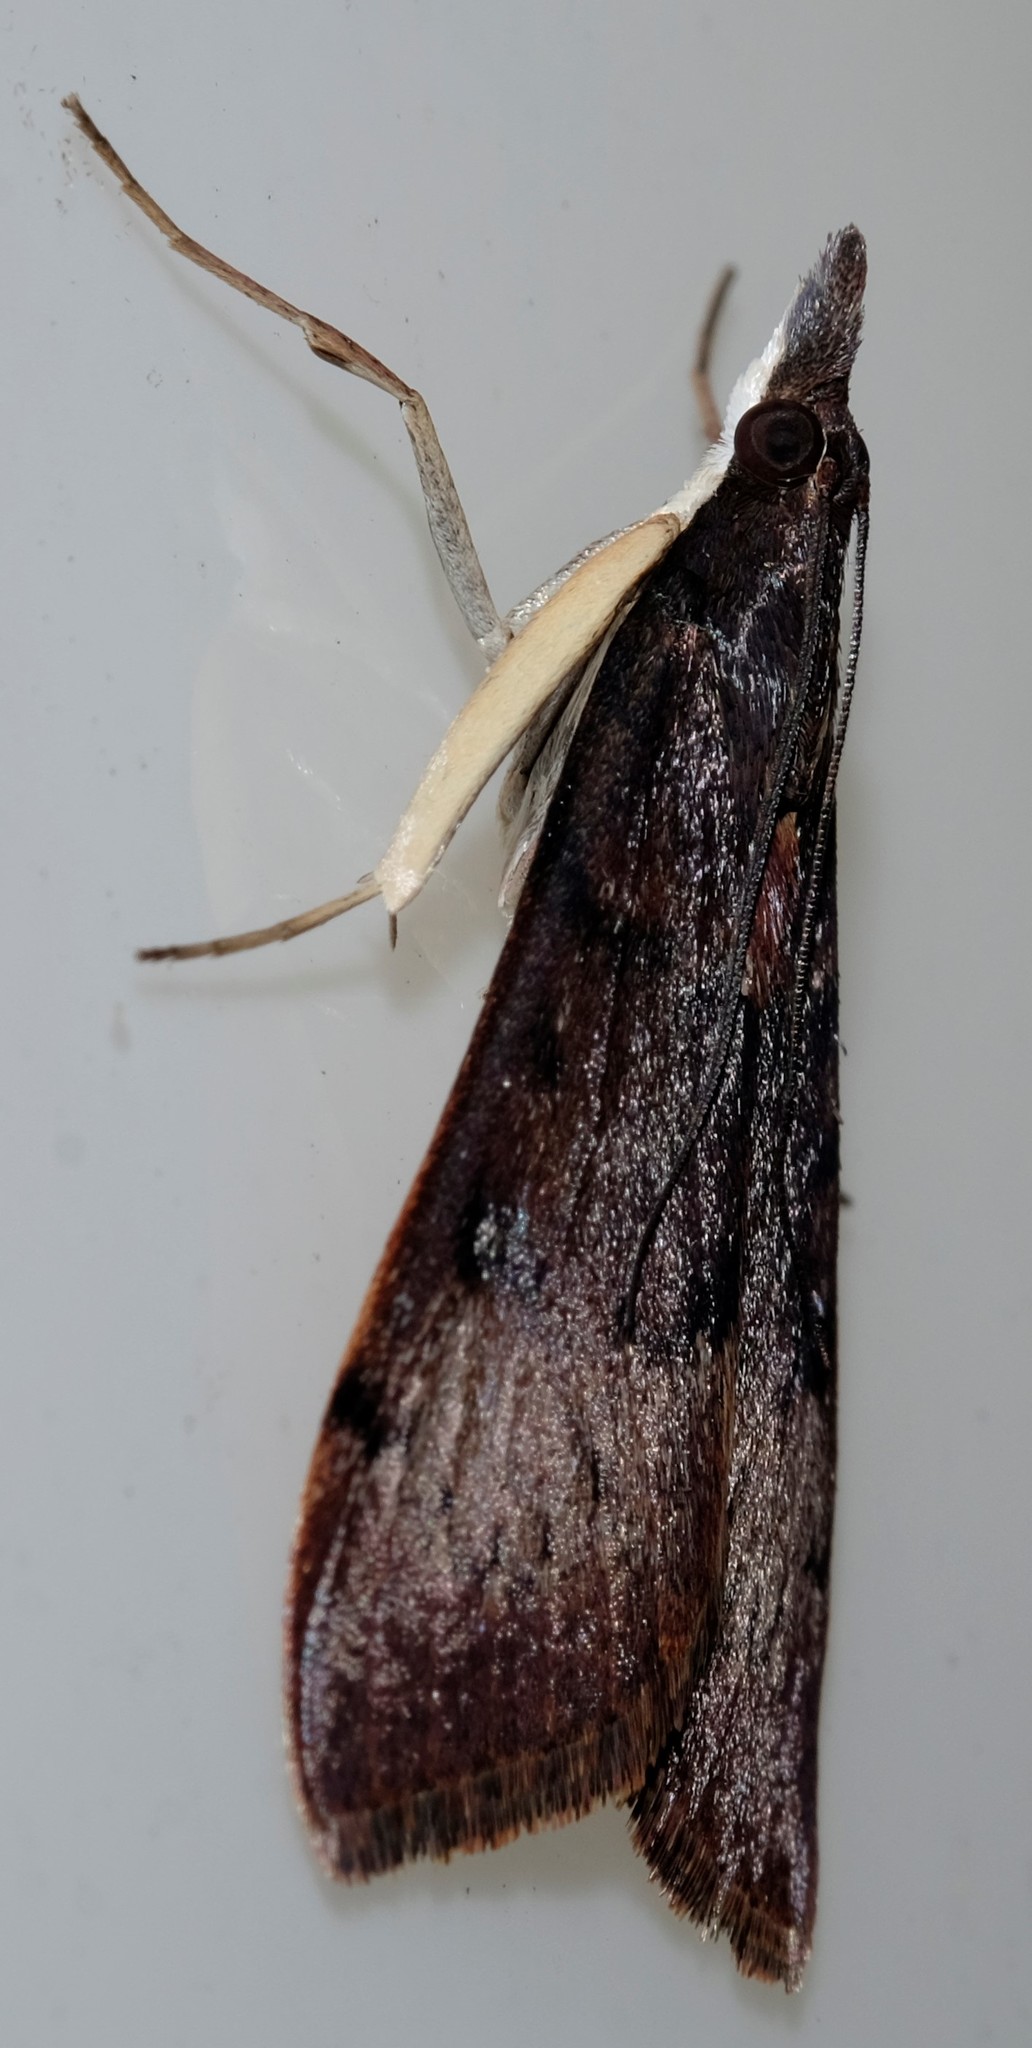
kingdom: Animalia
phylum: Arthropoda
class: Insecta
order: Lepidoptera
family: Crambidae
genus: Uresiphita
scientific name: Uresiphita ornithopteralis
